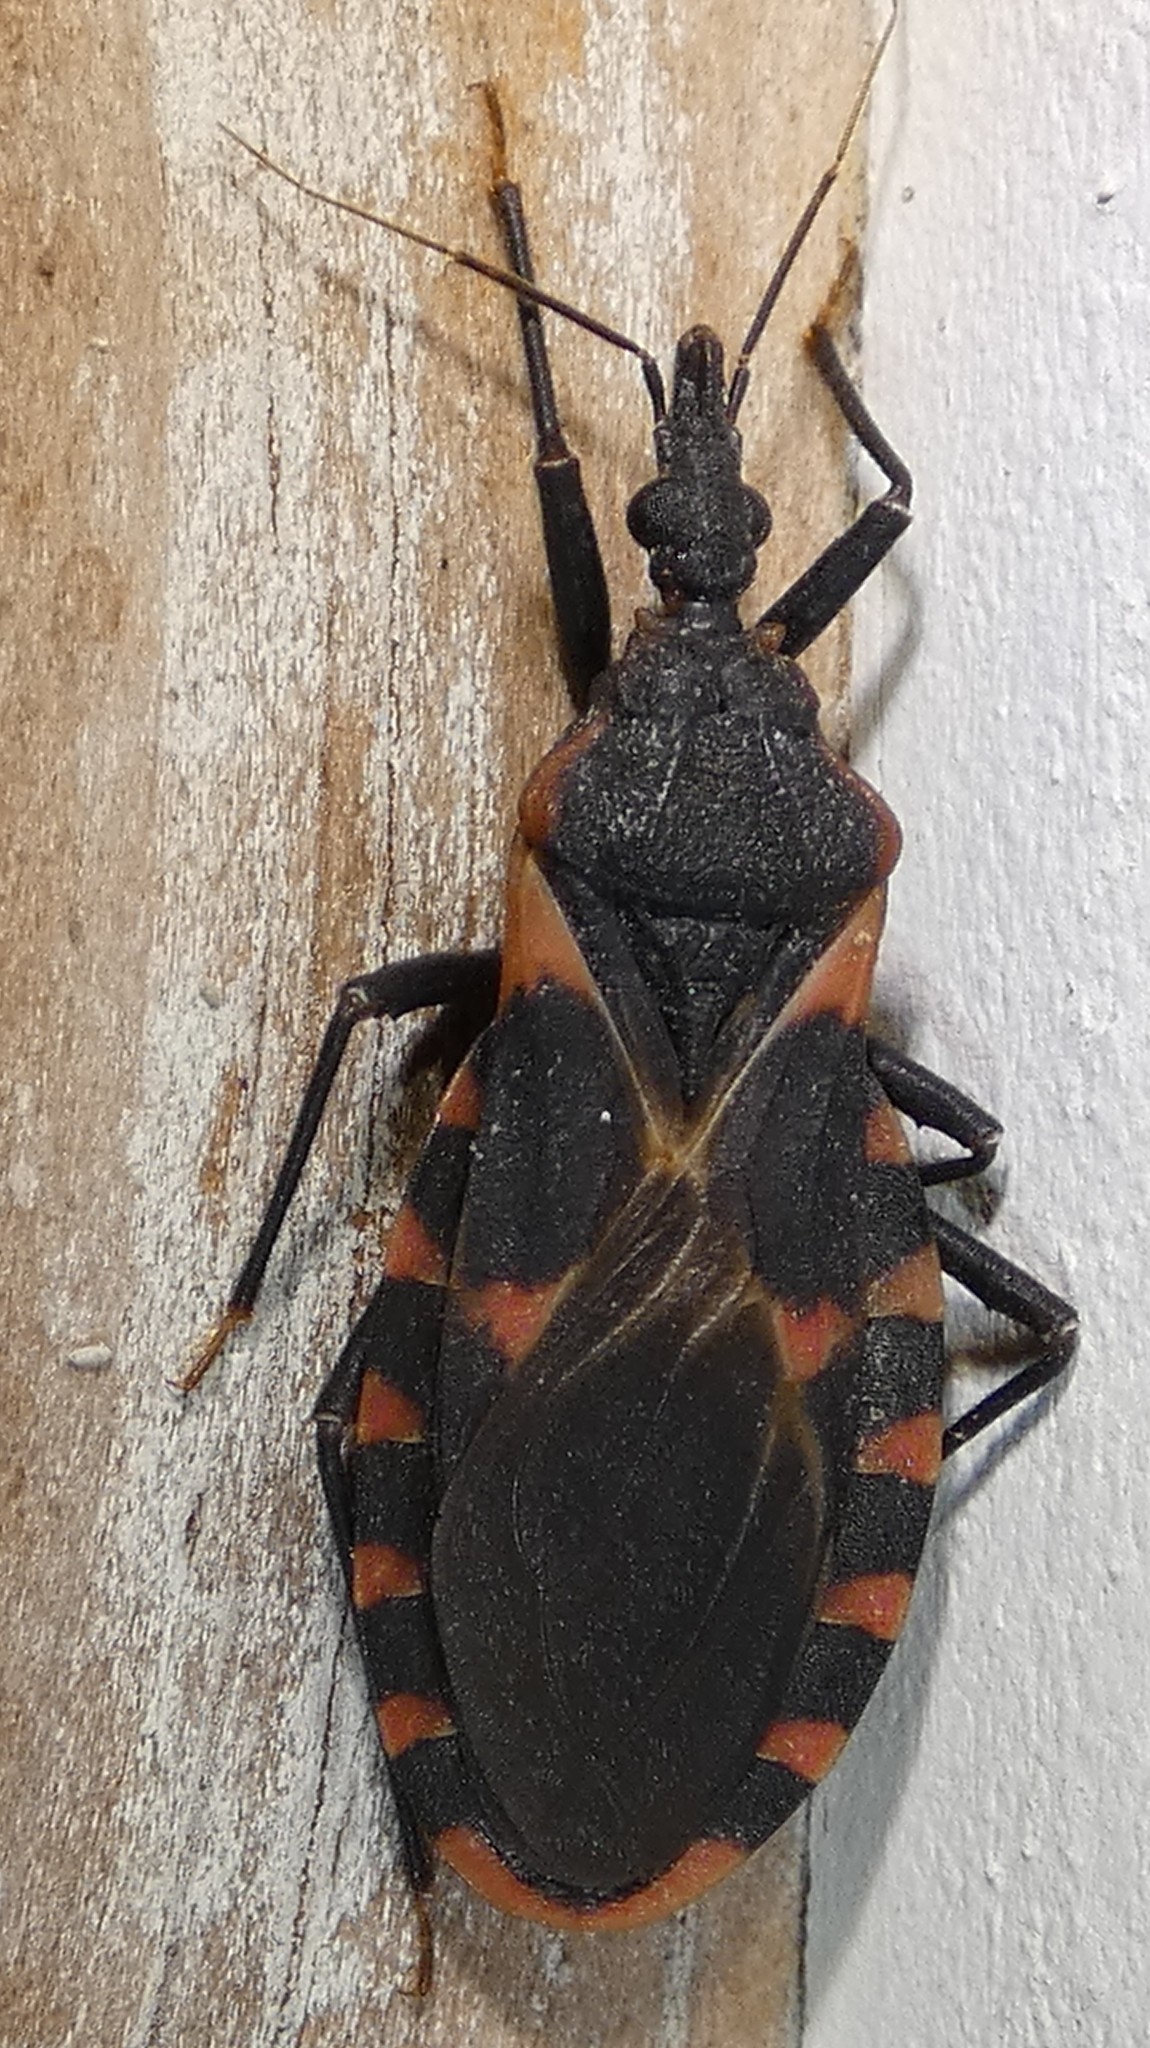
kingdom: Animalia
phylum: Arthropoda
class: Insecta
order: Hemiptera
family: Reduviidae
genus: Triatoma
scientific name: Triatoma sanguisuga
